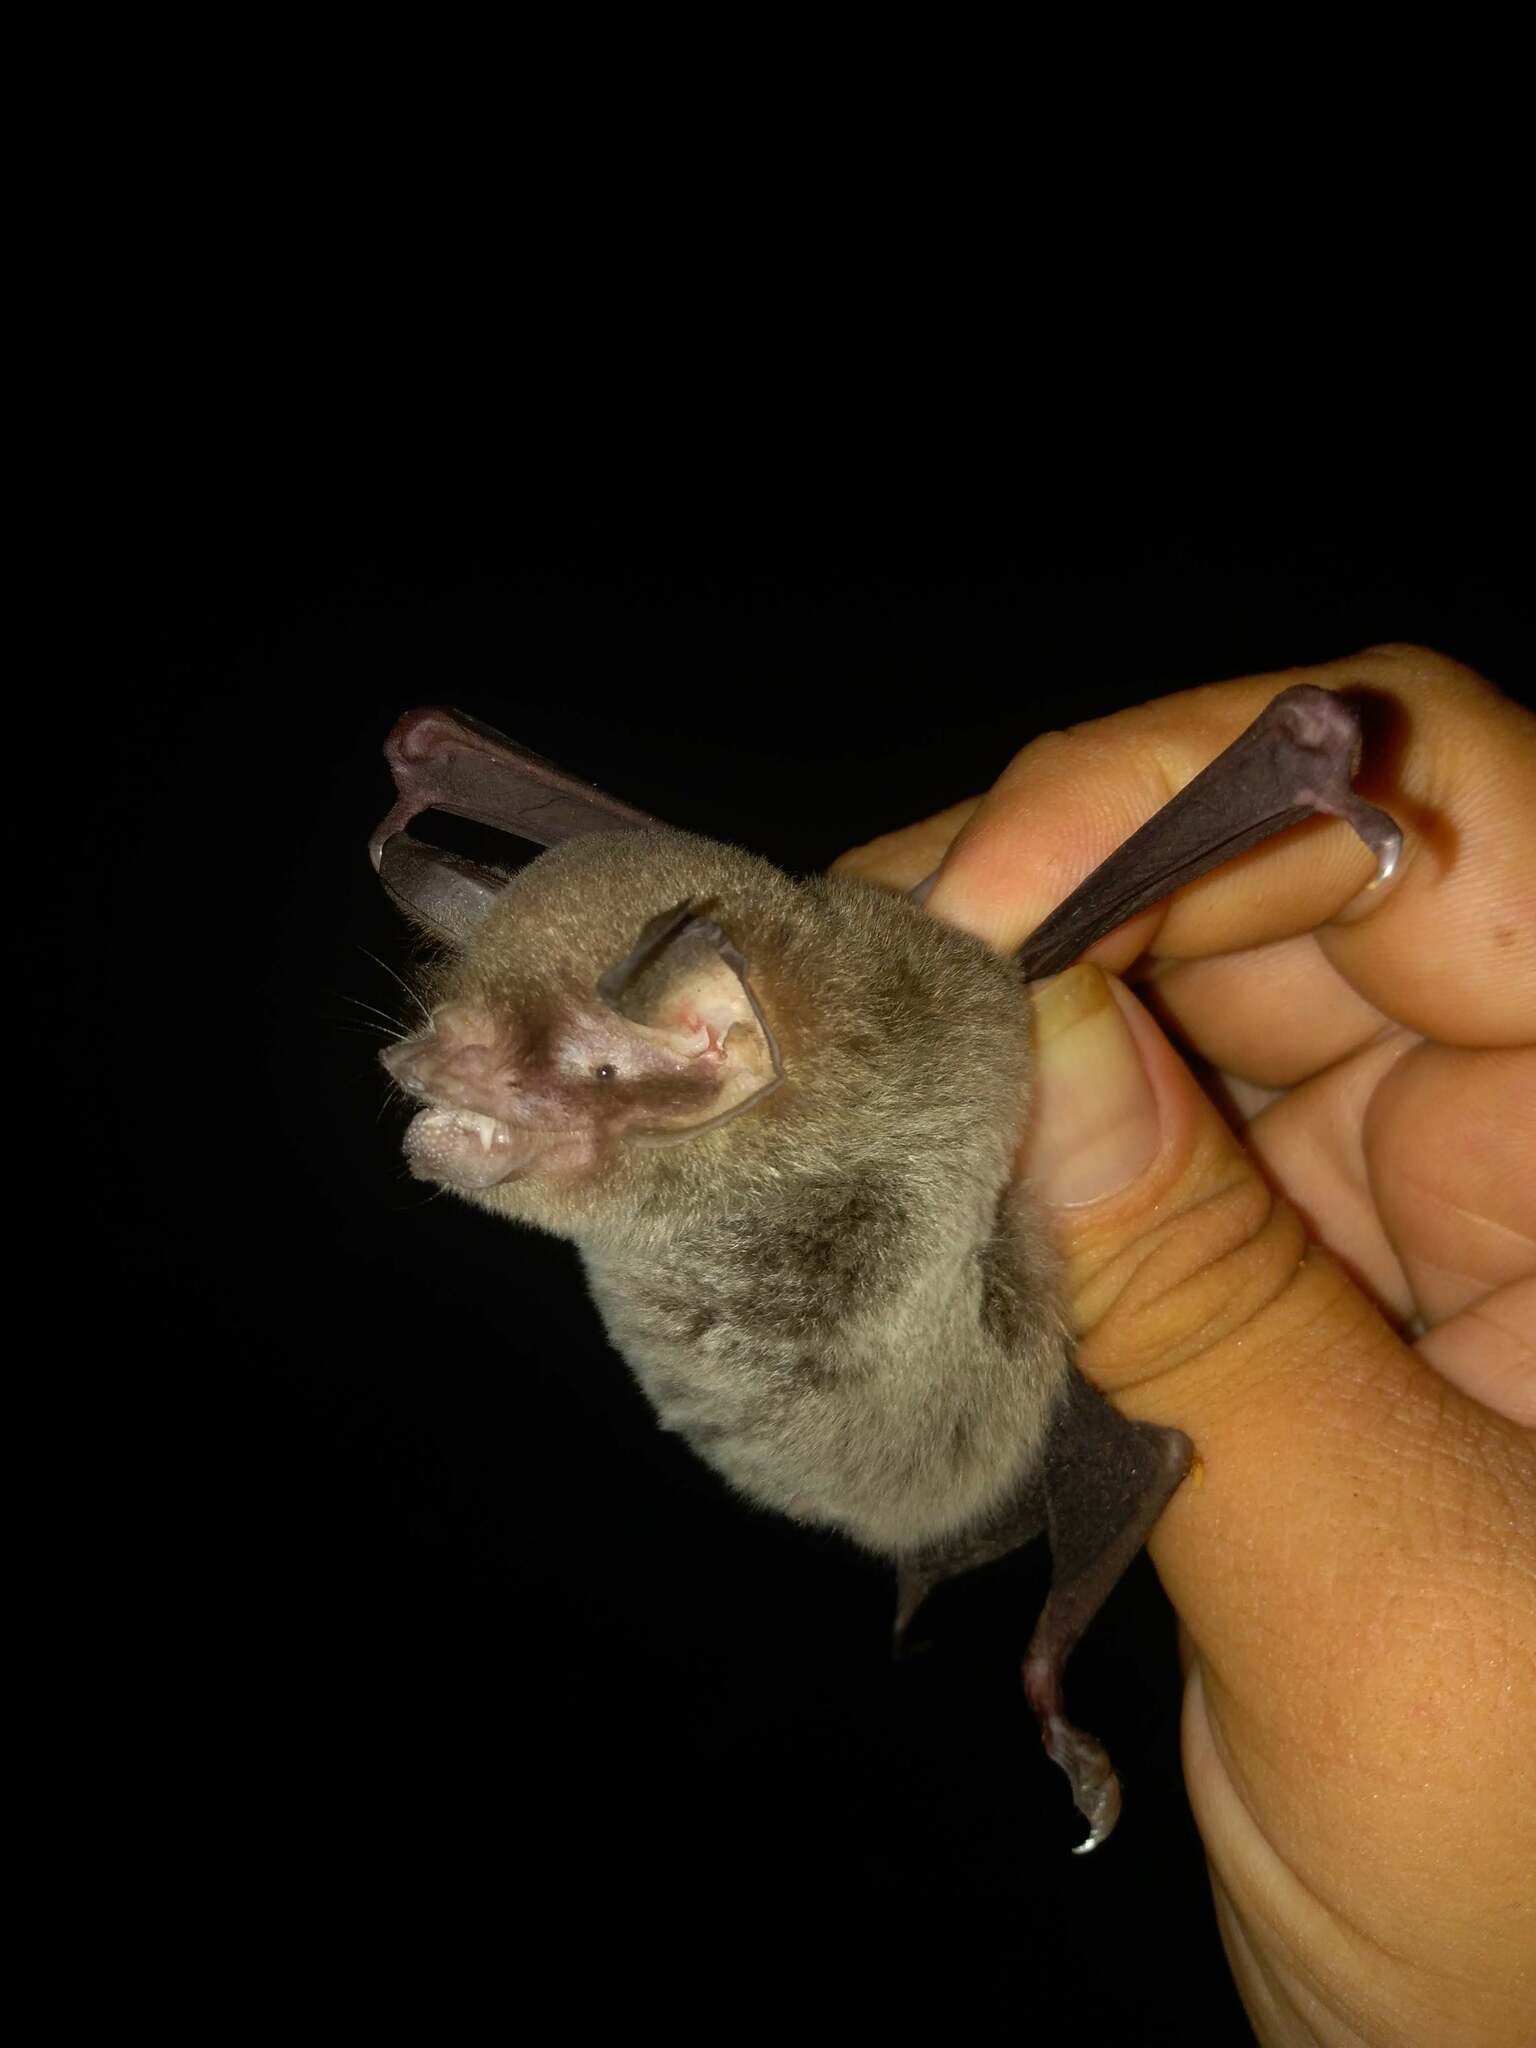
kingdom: Animalia
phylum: Chordata
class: Mammalia
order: Chiroptera
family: Mormoopidae
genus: Pteronotus
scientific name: Pteronotus mesoamericanus
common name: Mesoamerican common mustached bat
